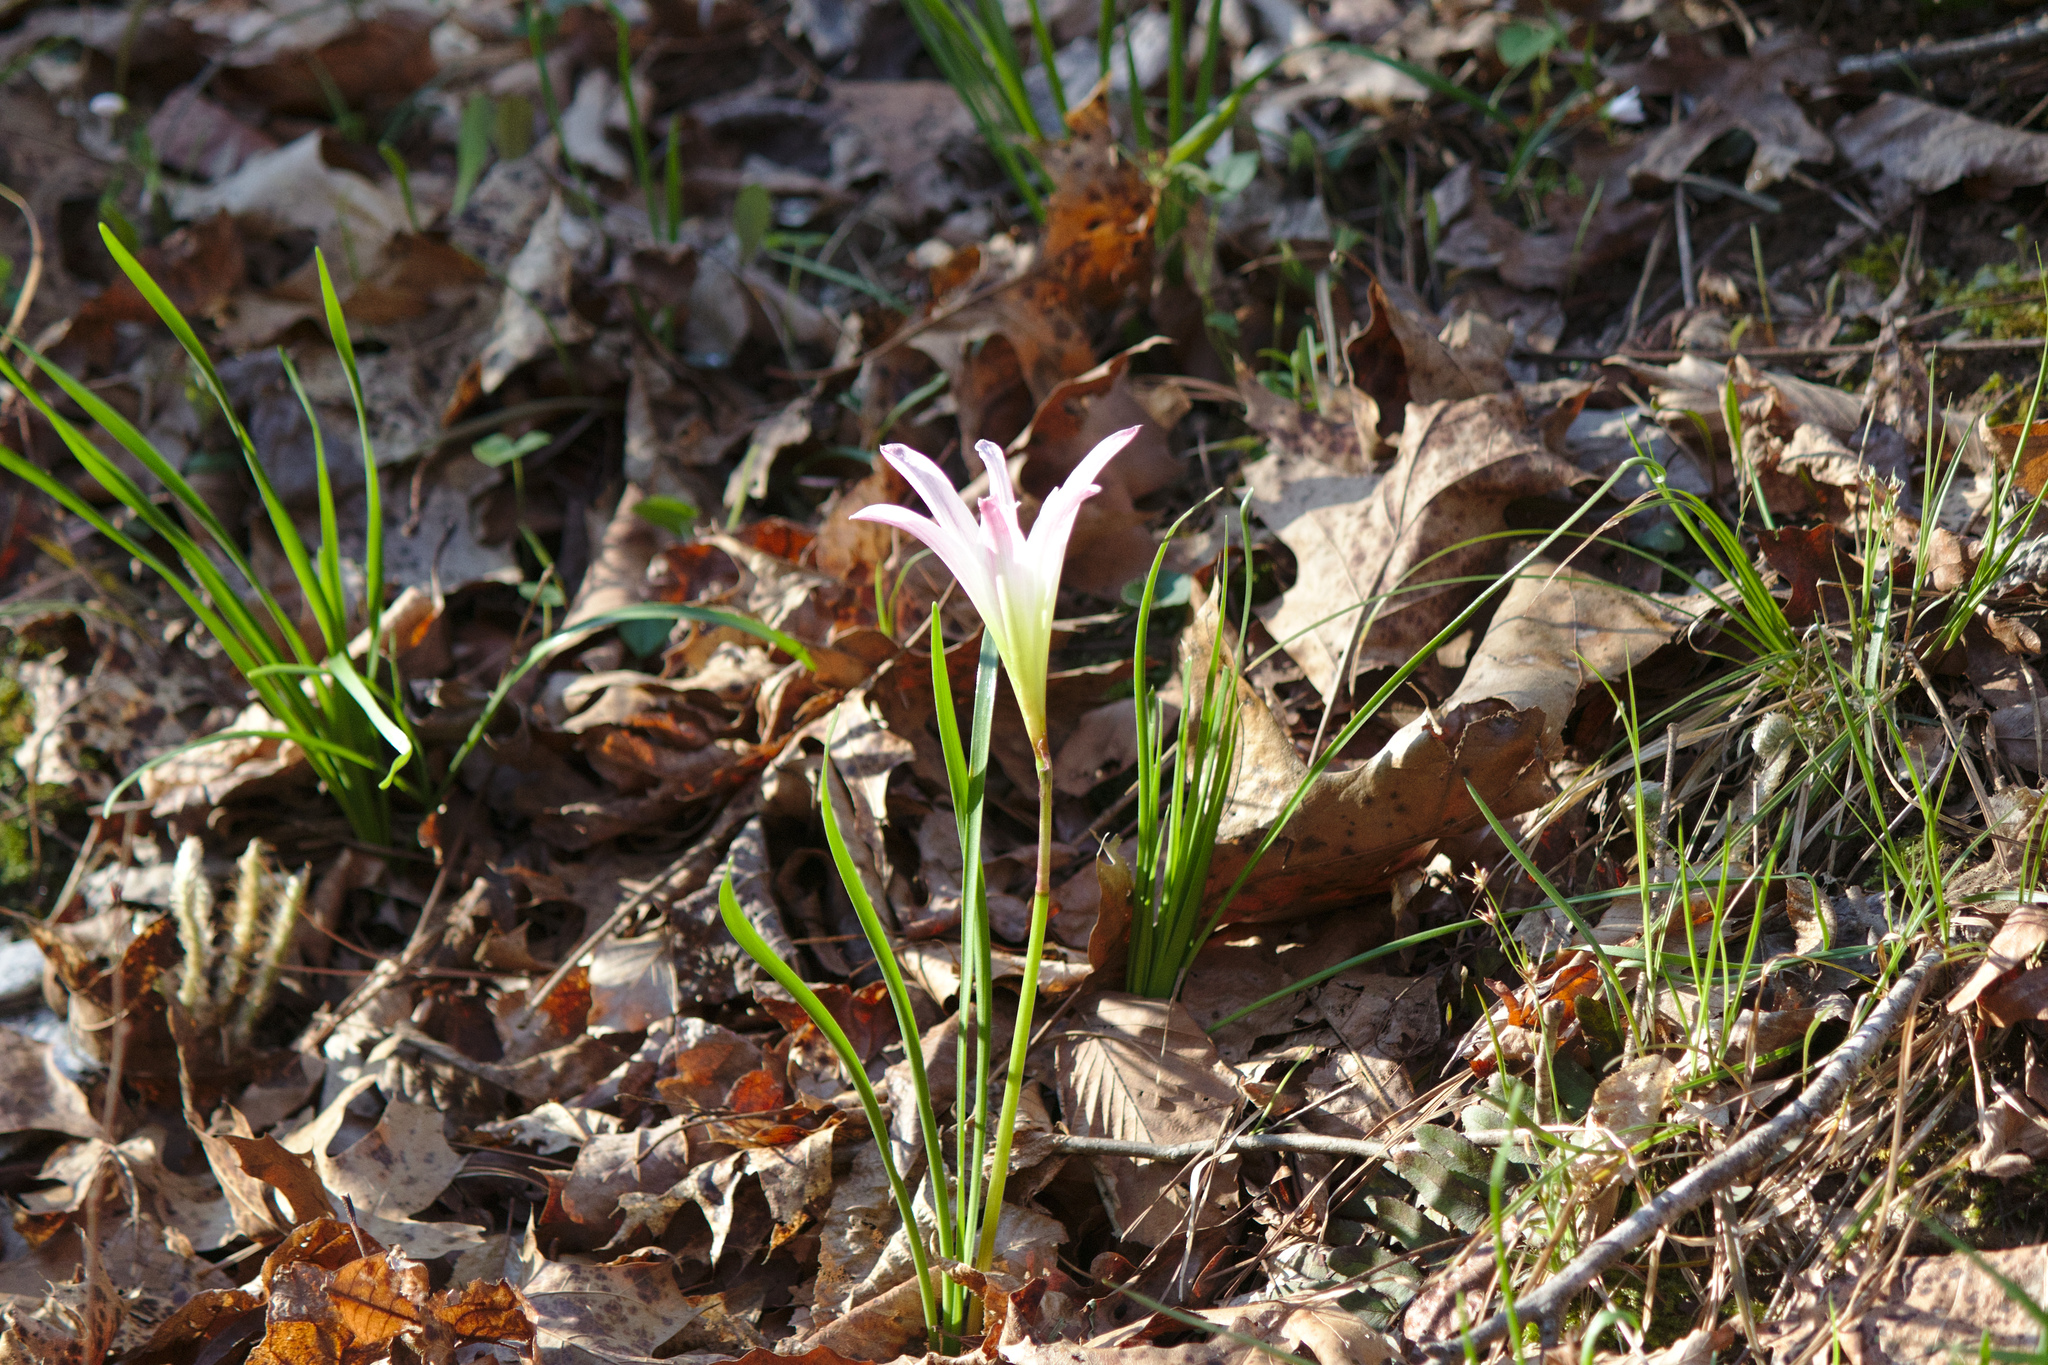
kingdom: Plantae
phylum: Tracheophyta
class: Liliopsida
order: Asparagales
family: Amaryllidaceae
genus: Zephyranthes
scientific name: Zephyranthes atamasco
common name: Atamasco lily
